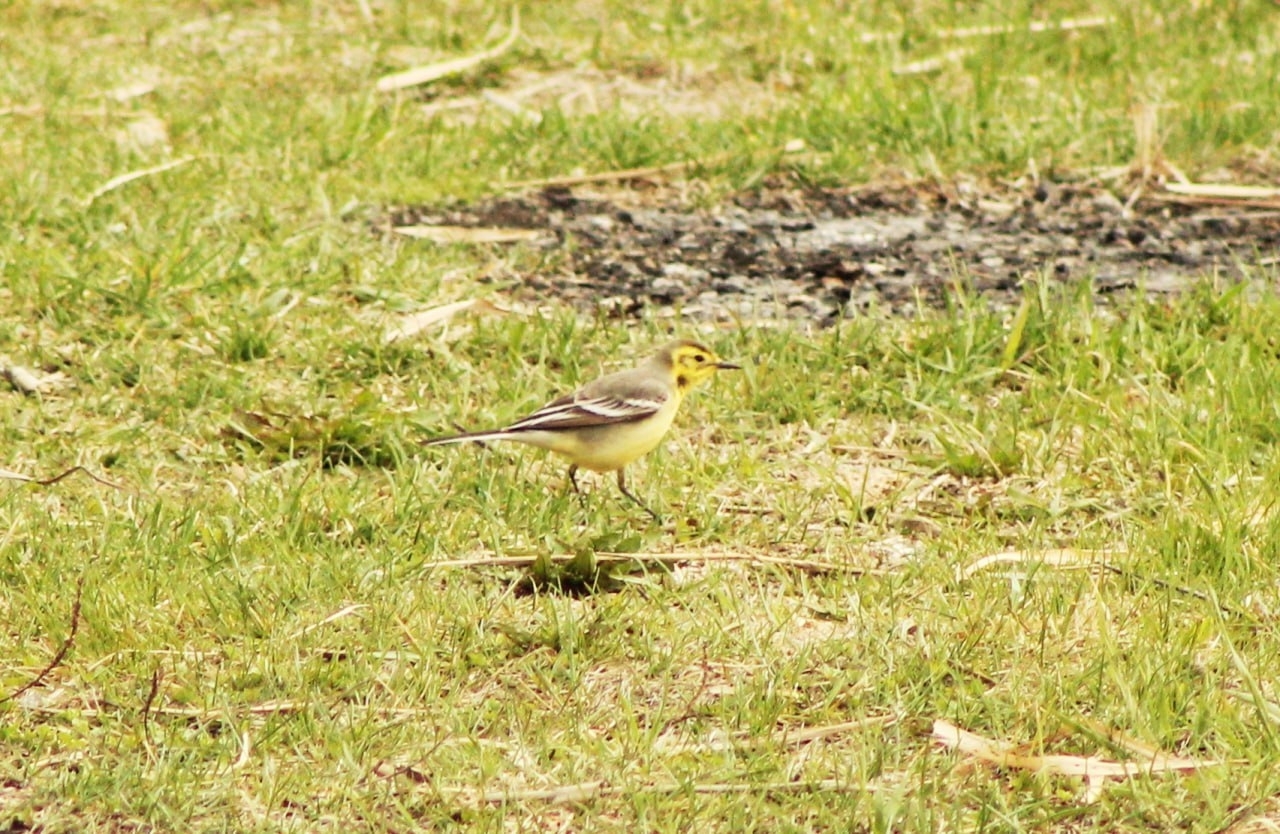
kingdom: Animalia
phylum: Chordata
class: Aves
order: Passeriformes
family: Motacillidae
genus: Motacilla
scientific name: Motacilla citreola
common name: Citrine wagtail
